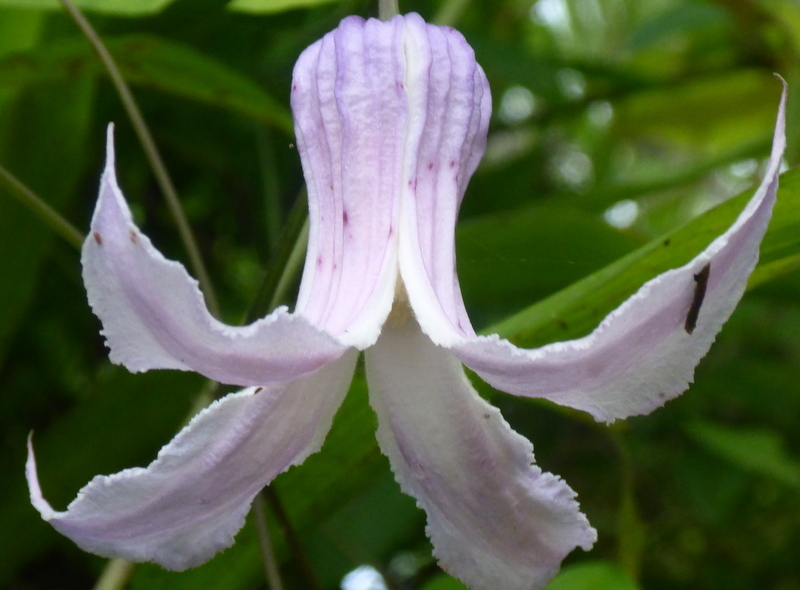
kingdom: Plantae
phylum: Tracheophyta
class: Magnoliopsida
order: Ranunculales
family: Ranunculaceae
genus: Clematis
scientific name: Clematis crispa
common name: Curly clematis
